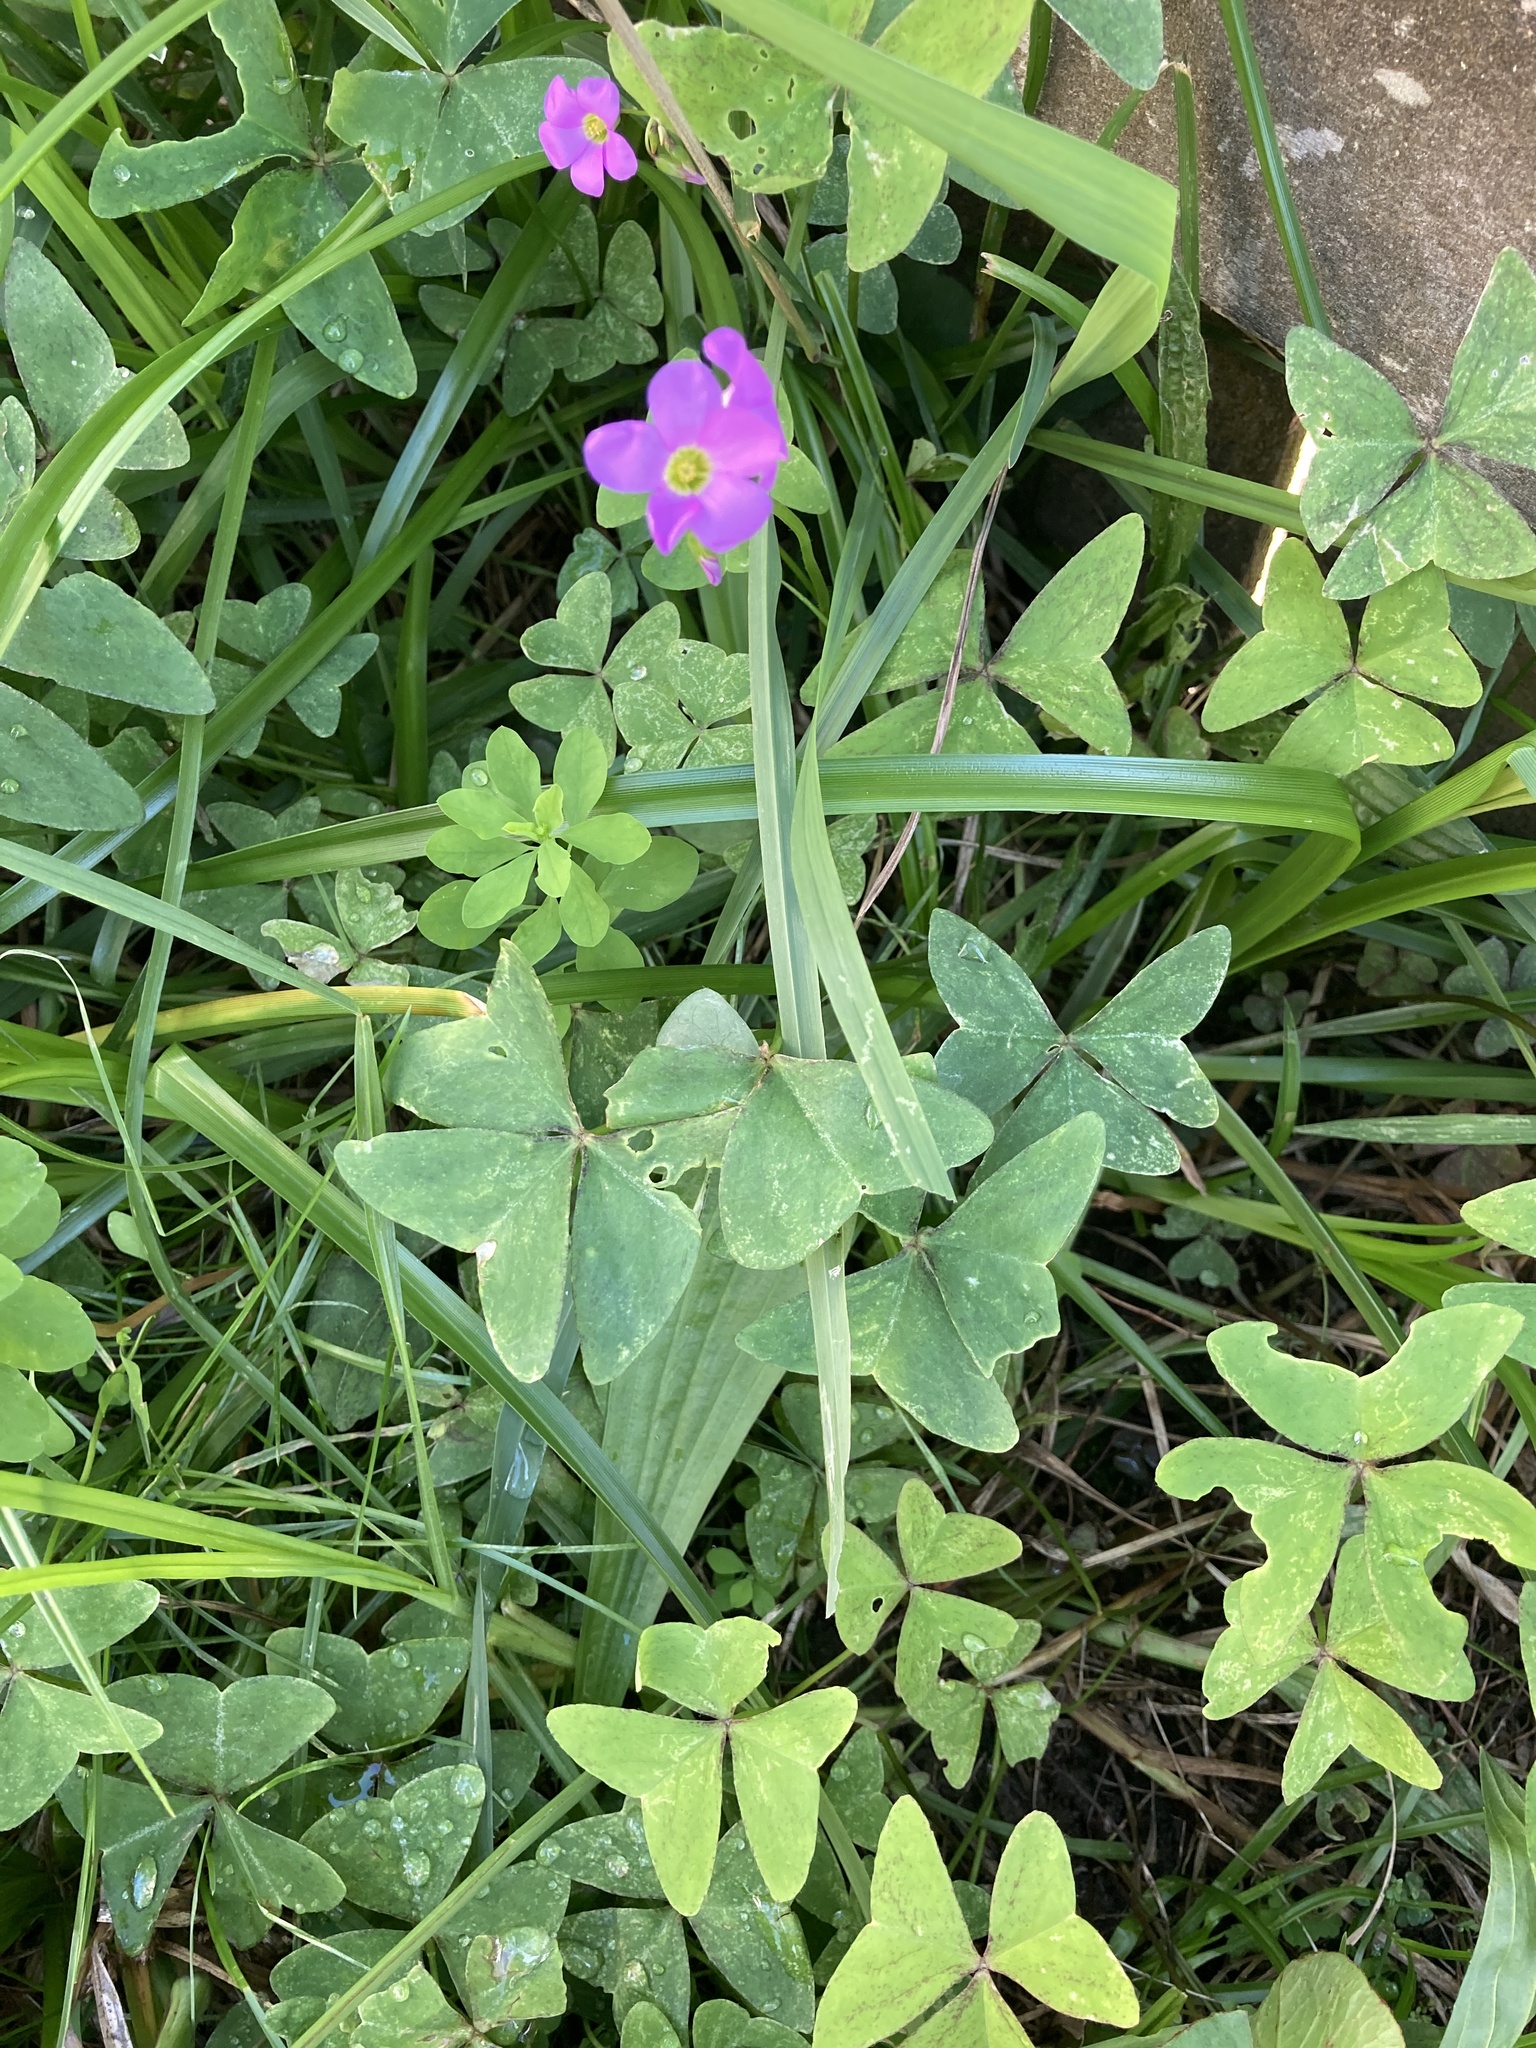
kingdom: Plantae
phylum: Tracheophyta
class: Magnoliopsida
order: Oxalidales
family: Oxalidaceae
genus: Oxalis
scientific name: Oxalis latifolia
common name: Garden pink-sorrel
